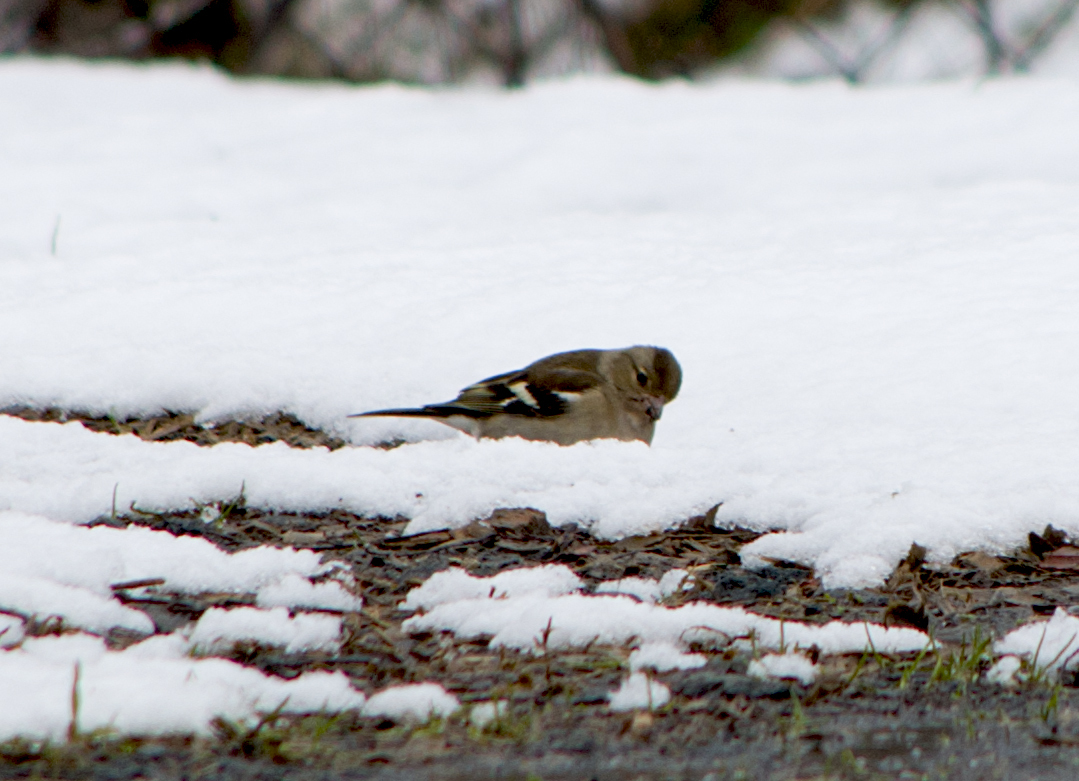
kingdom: Animalia
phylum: Chordata
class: Aves
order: Passeriformes
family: Fringillidae
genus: Fringilla
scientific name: Fringilla coelebs
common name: Common chaffinch
